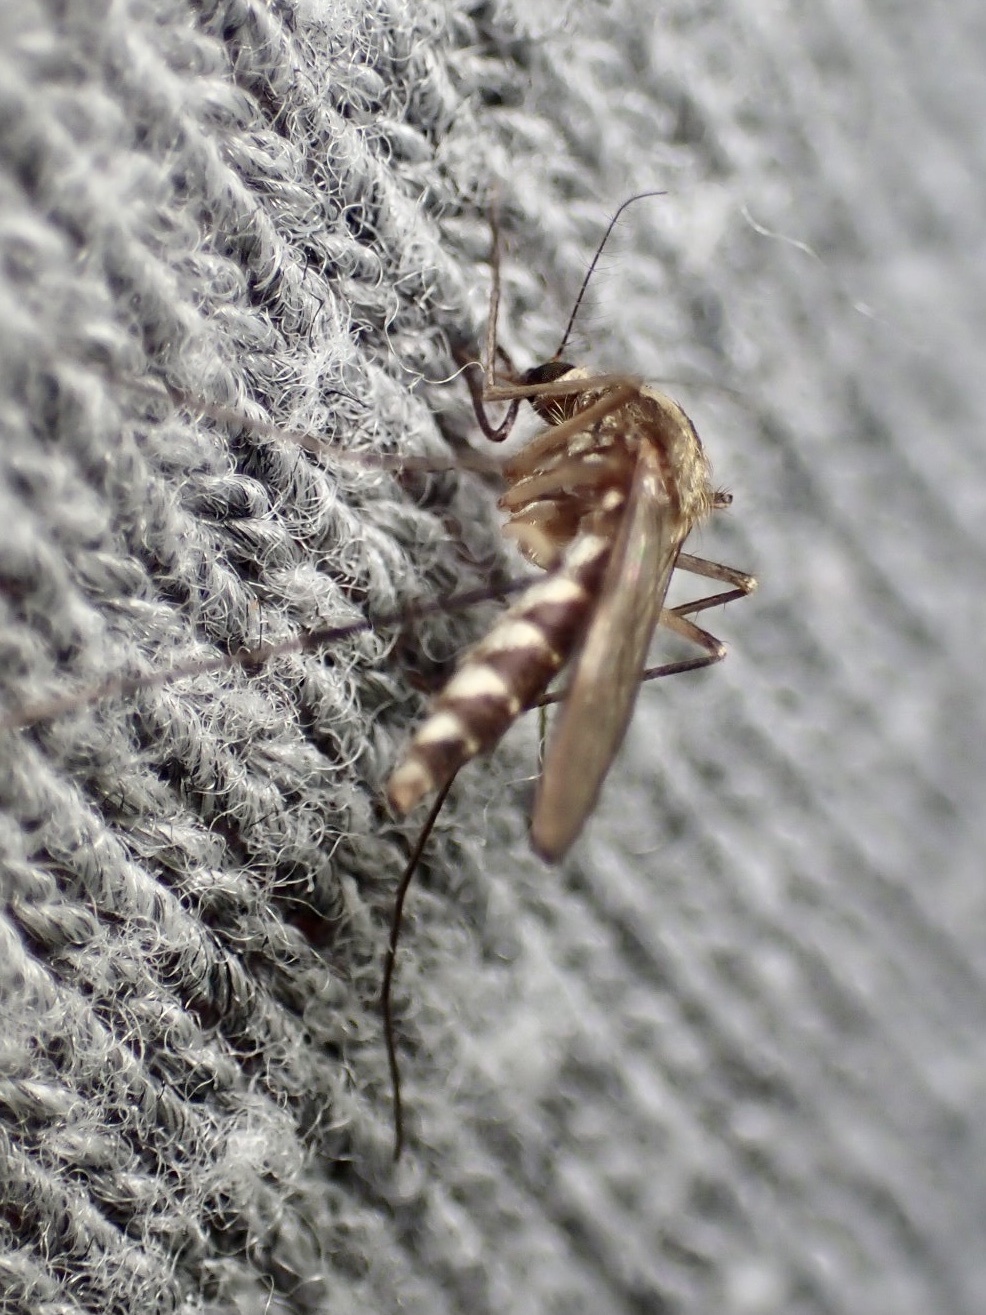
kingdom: Animalia
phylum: Arthropoda
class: Insecta
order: Diptera
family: Culicidae
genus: Aedes
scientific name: Aedes trivittatus
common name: Plains floodwater mosquito
